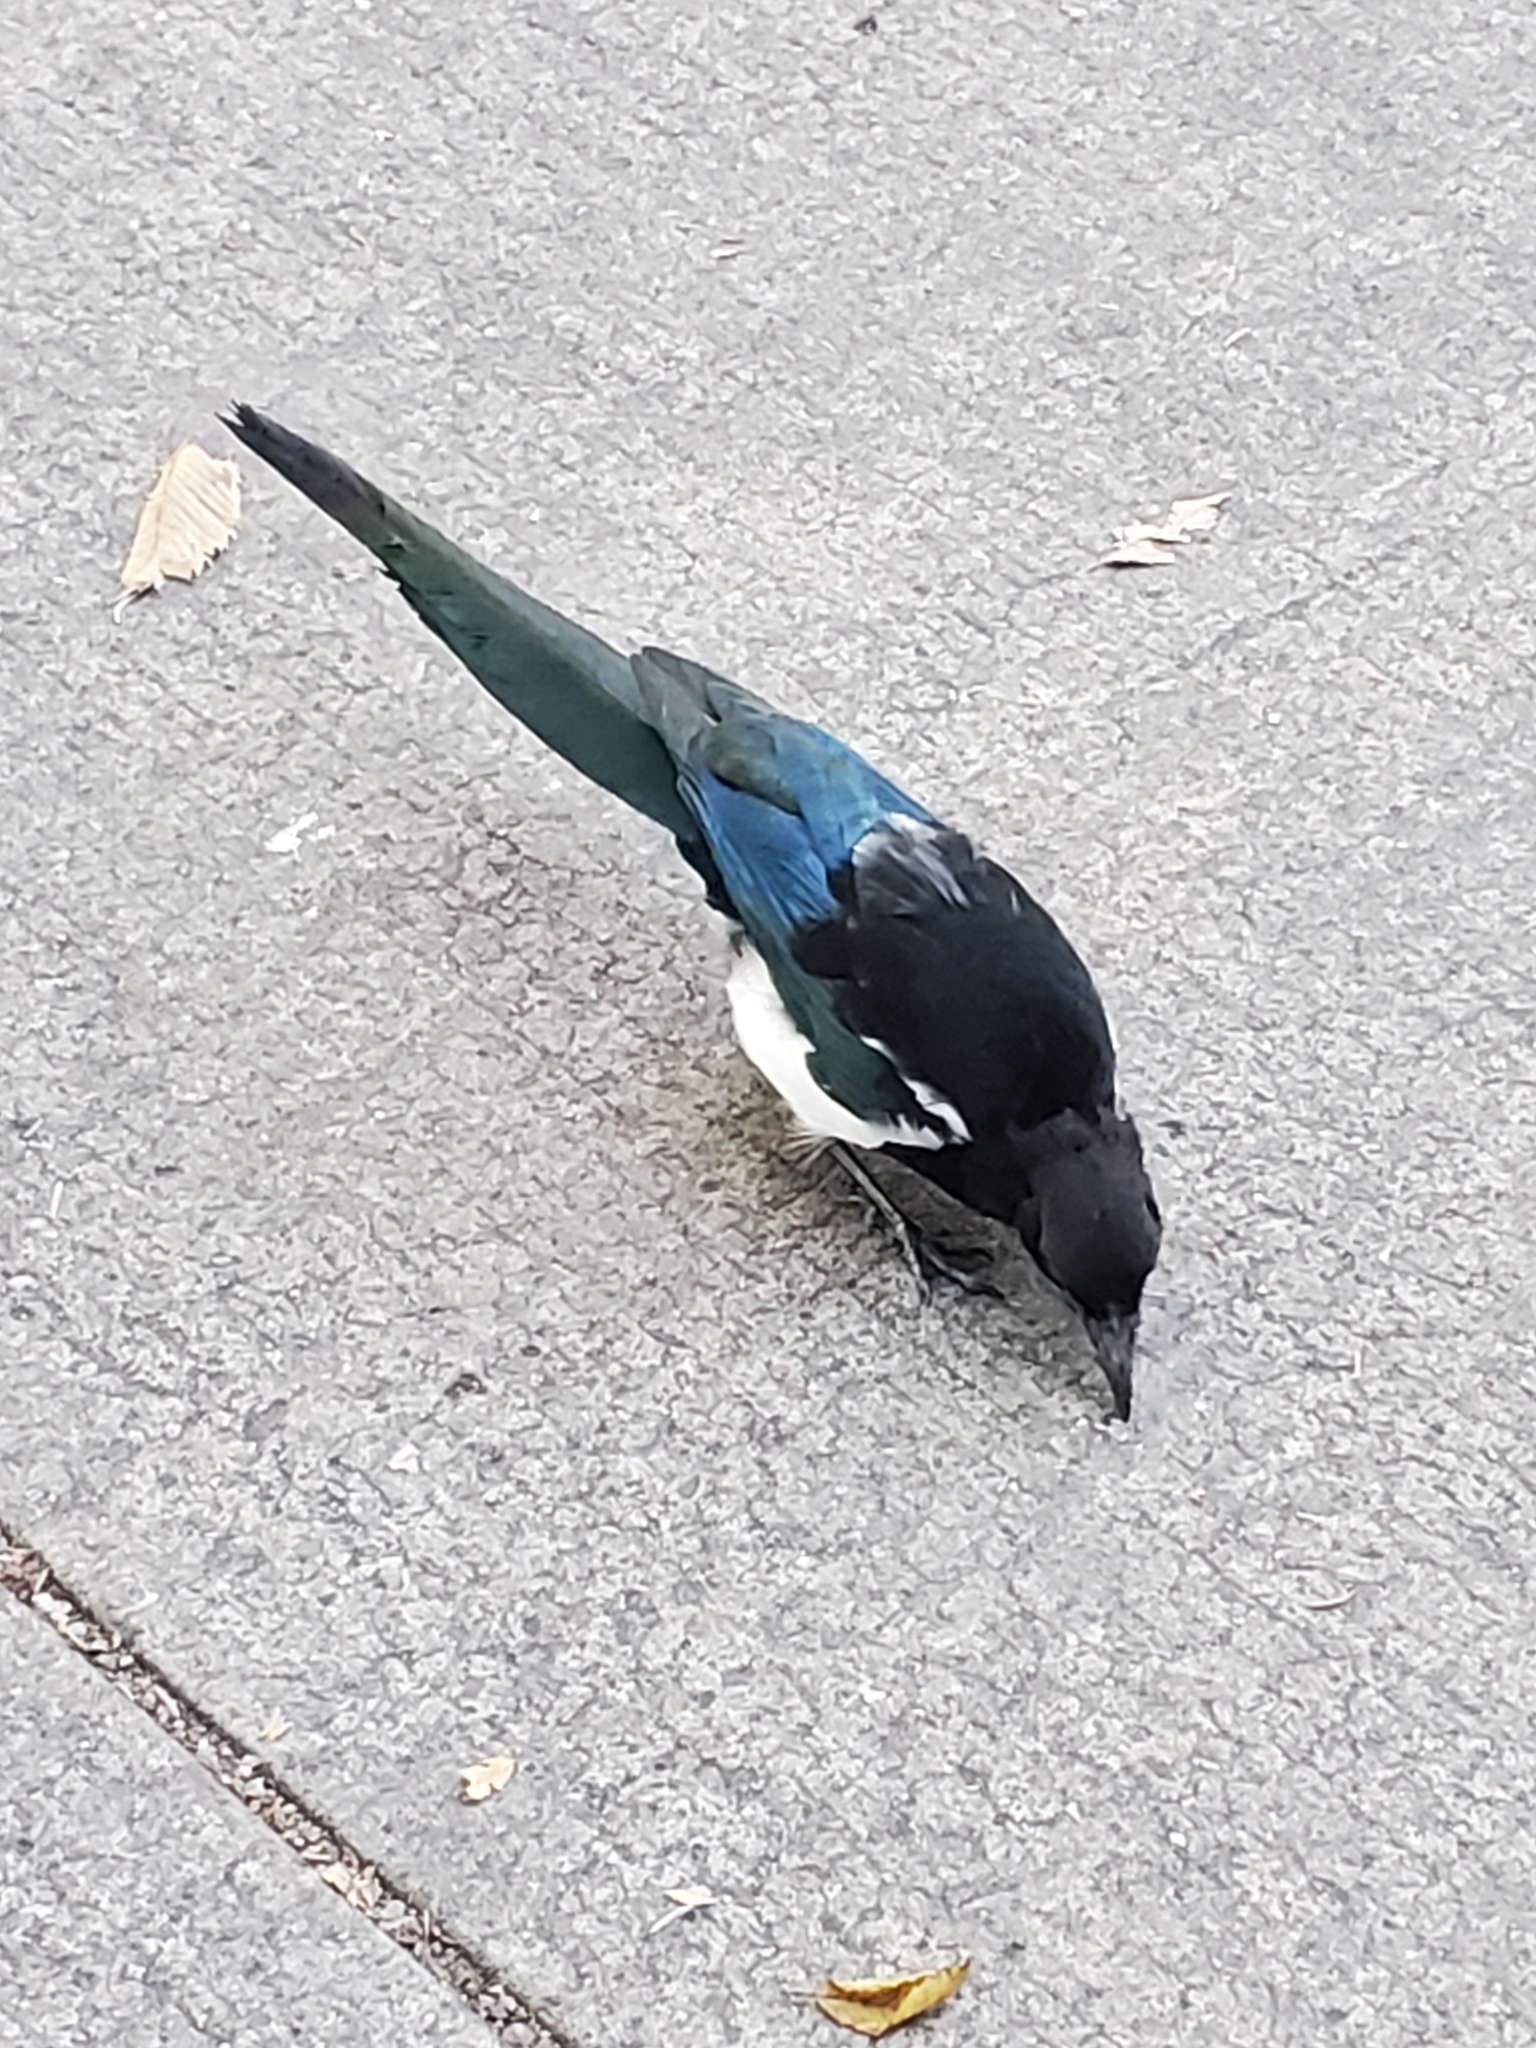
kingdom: Animalia
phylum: Chordata
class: Aves
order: Passeriformes
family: Corvidae
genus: Pica
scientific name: Pica hudsonia
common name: Black-billed magpie
